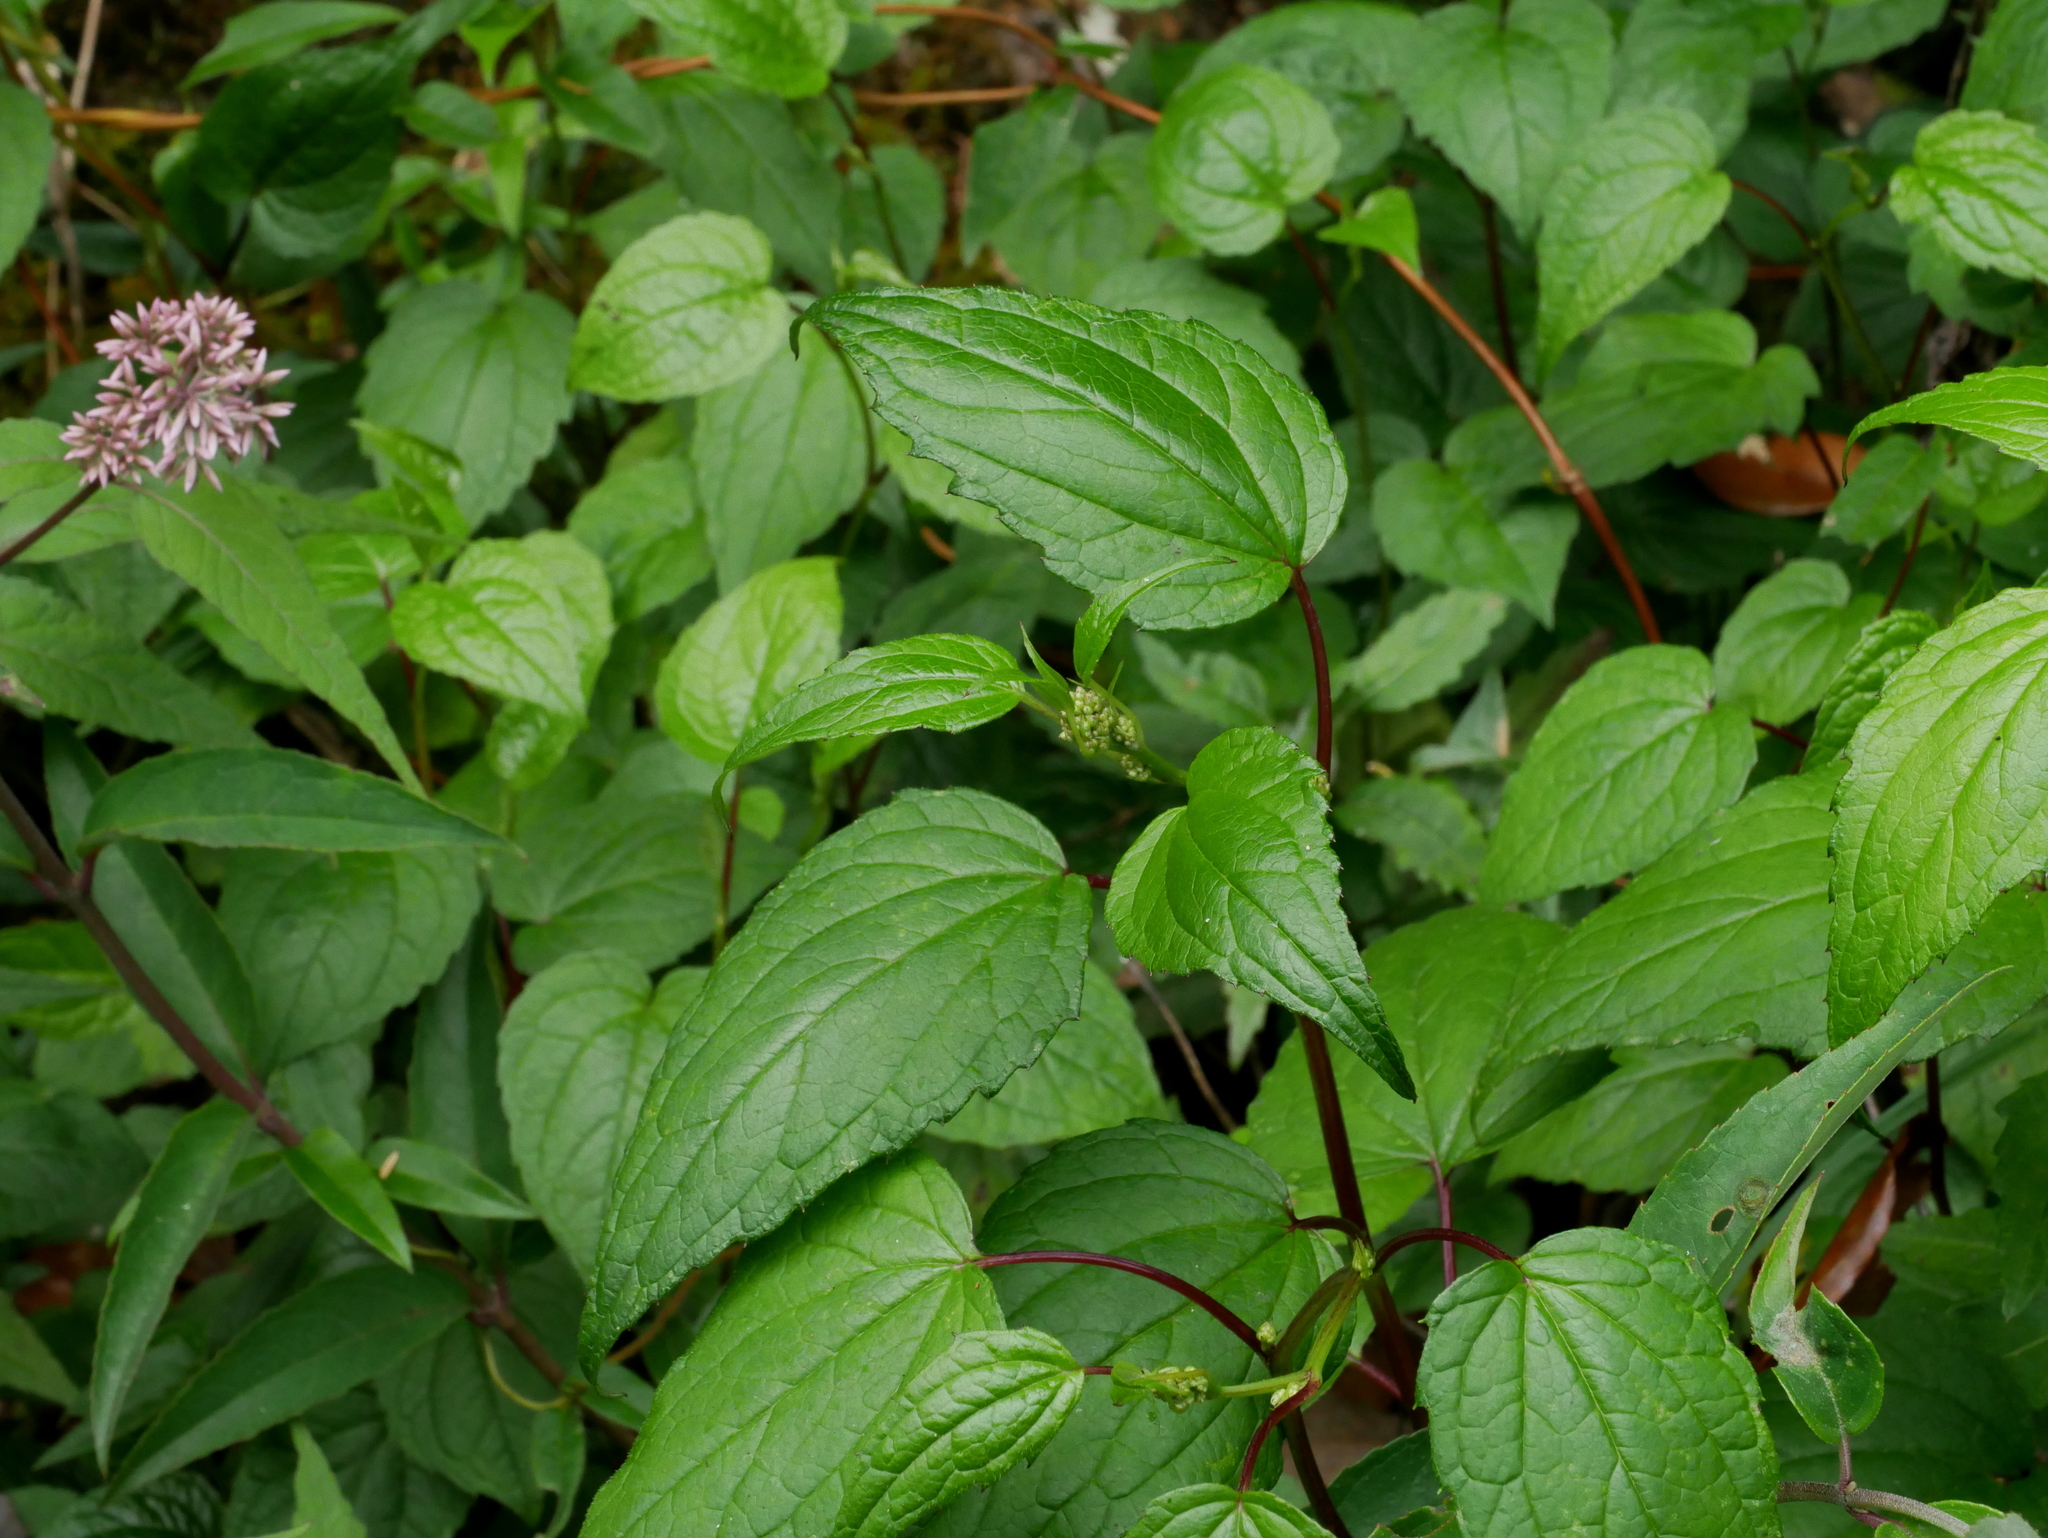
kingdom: Plantae
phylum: Tracheophyta
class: Magnoliopsida
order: Asterales
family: Asteraceae
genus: Aster
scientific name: Aster formosanus
